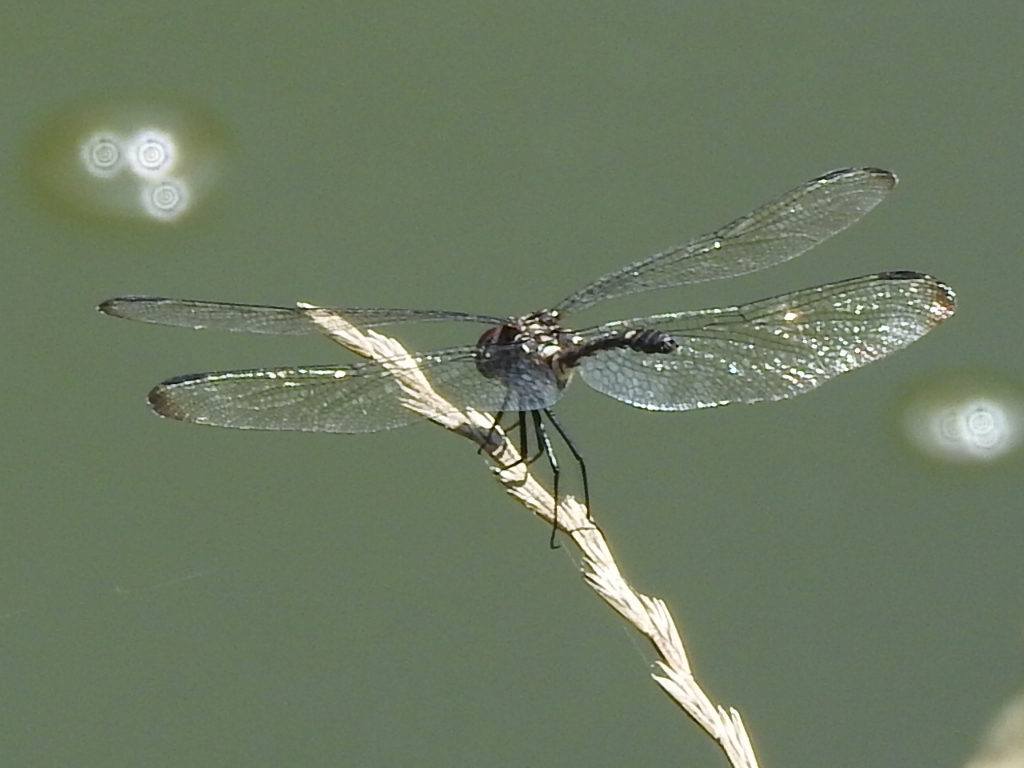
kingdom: Animalia
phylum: Arthropoda
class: Insecta
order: Odonata
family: Libellulidae
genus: Dythemis
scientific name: Dythemis velox
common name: Swift setwing
